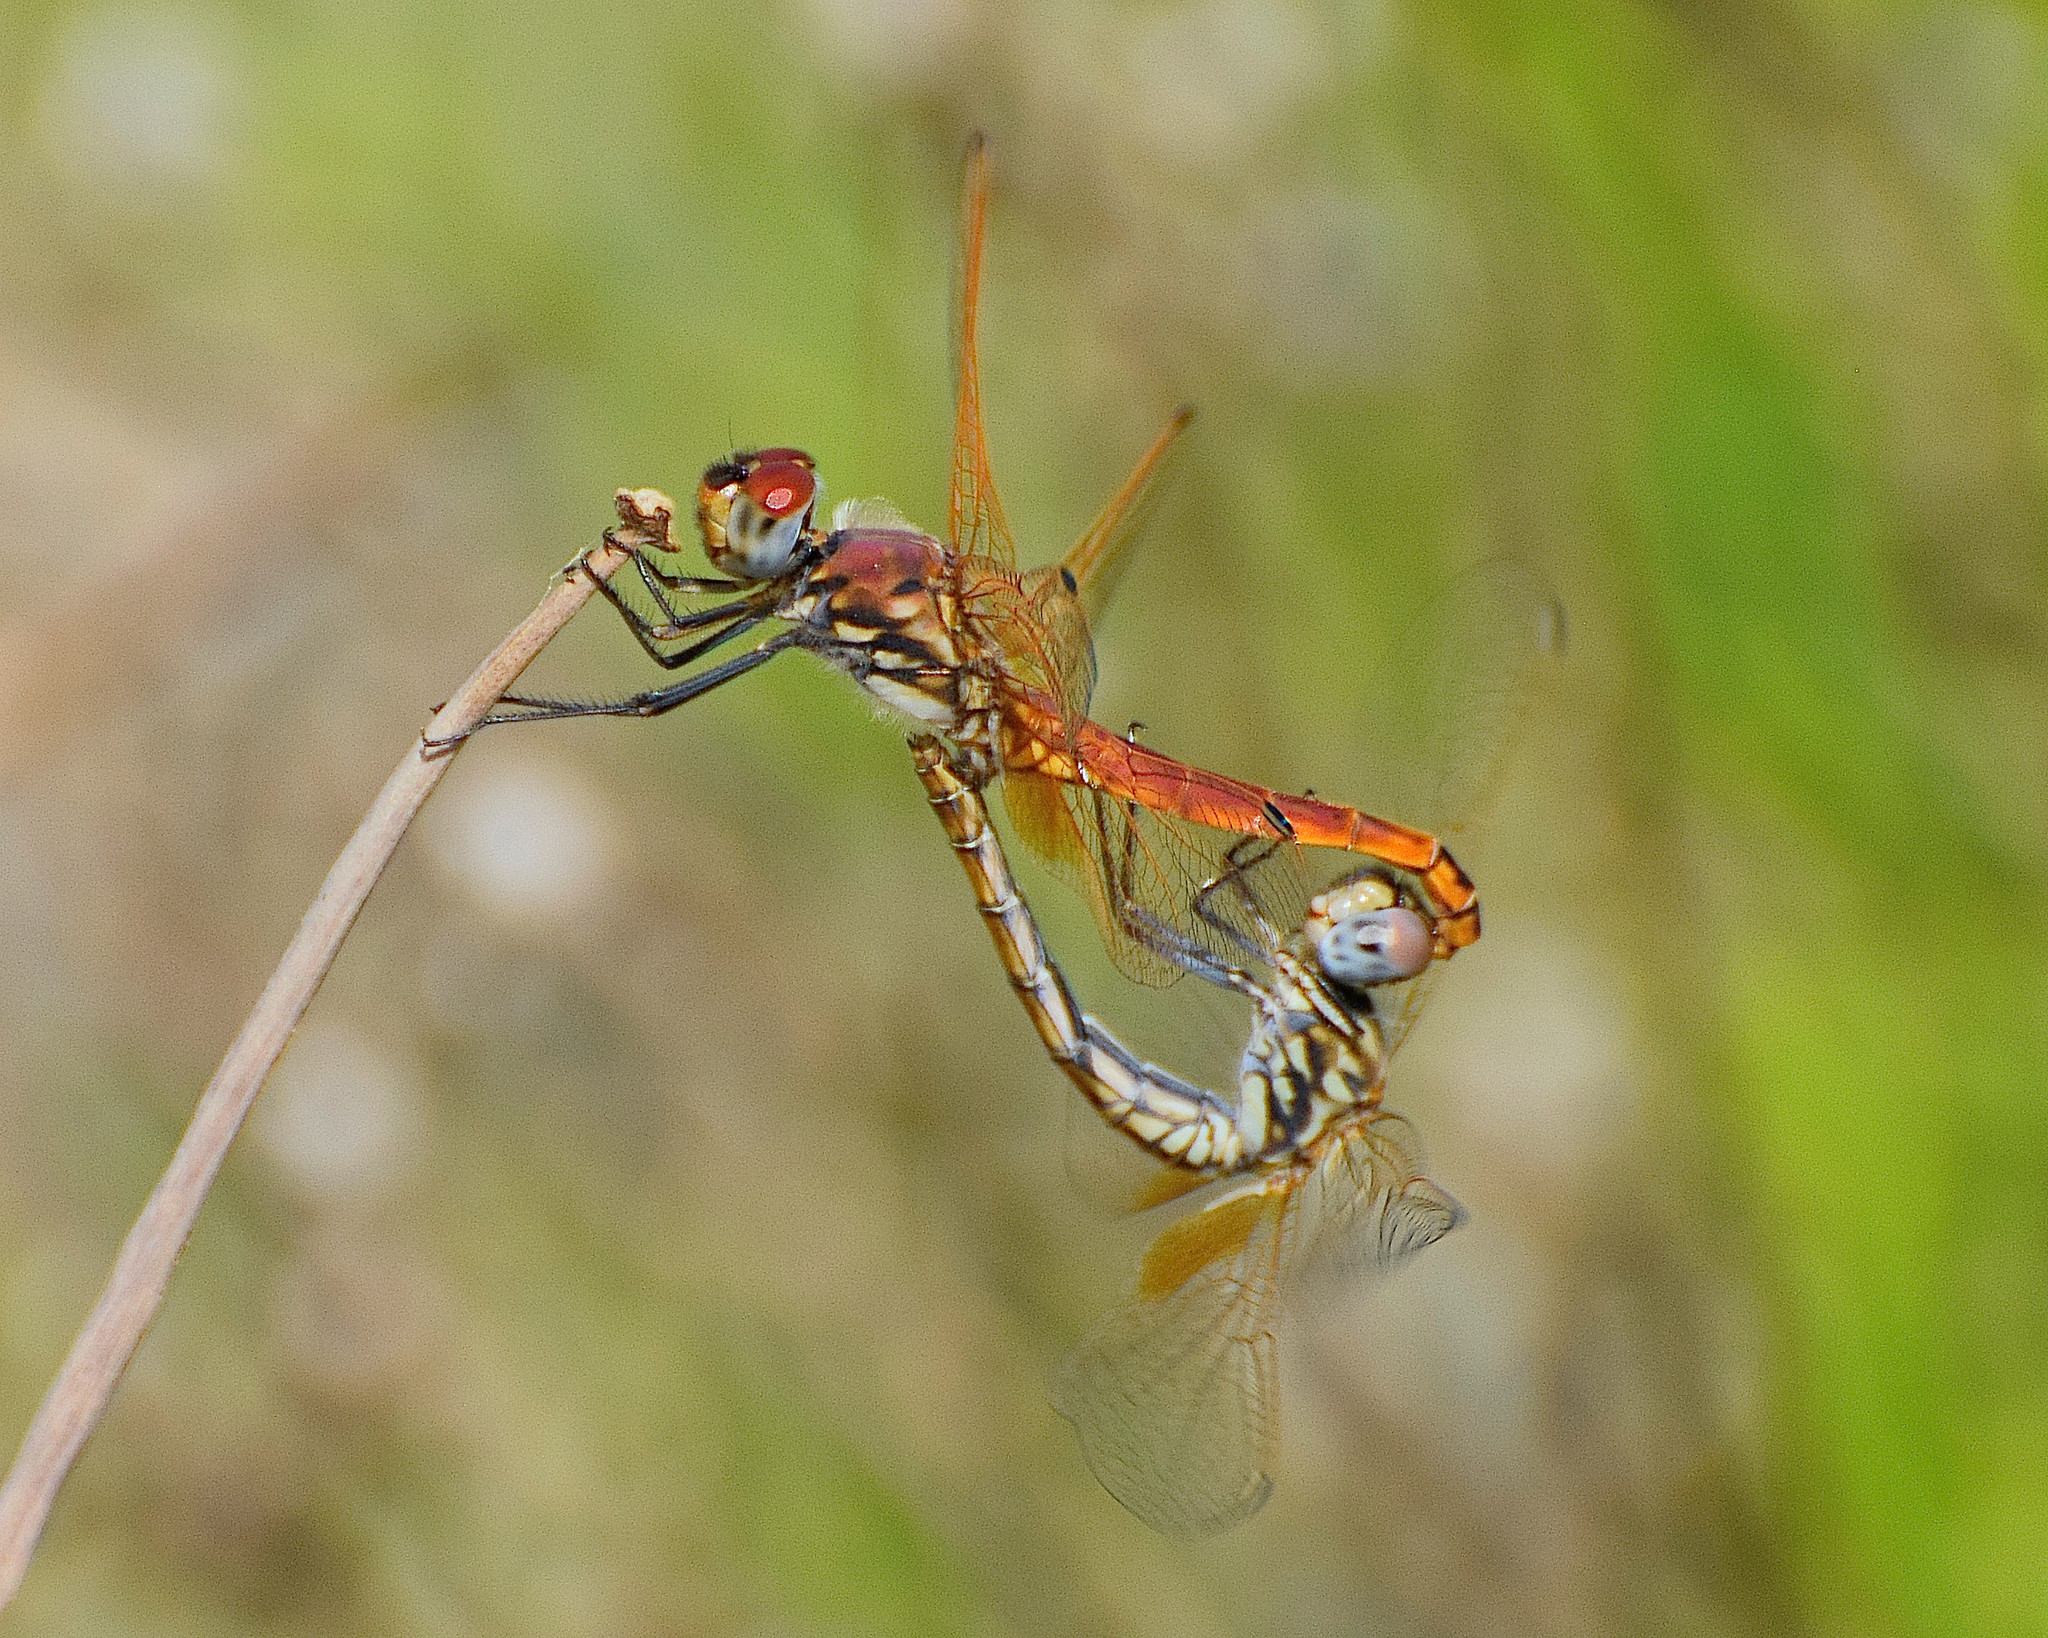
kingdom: Animalia
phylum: Arthropoda
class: Insecta
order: Odonata
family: Libellulidae
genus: Trithemis
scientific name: Trithemis annulata
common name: Violet dropwing
